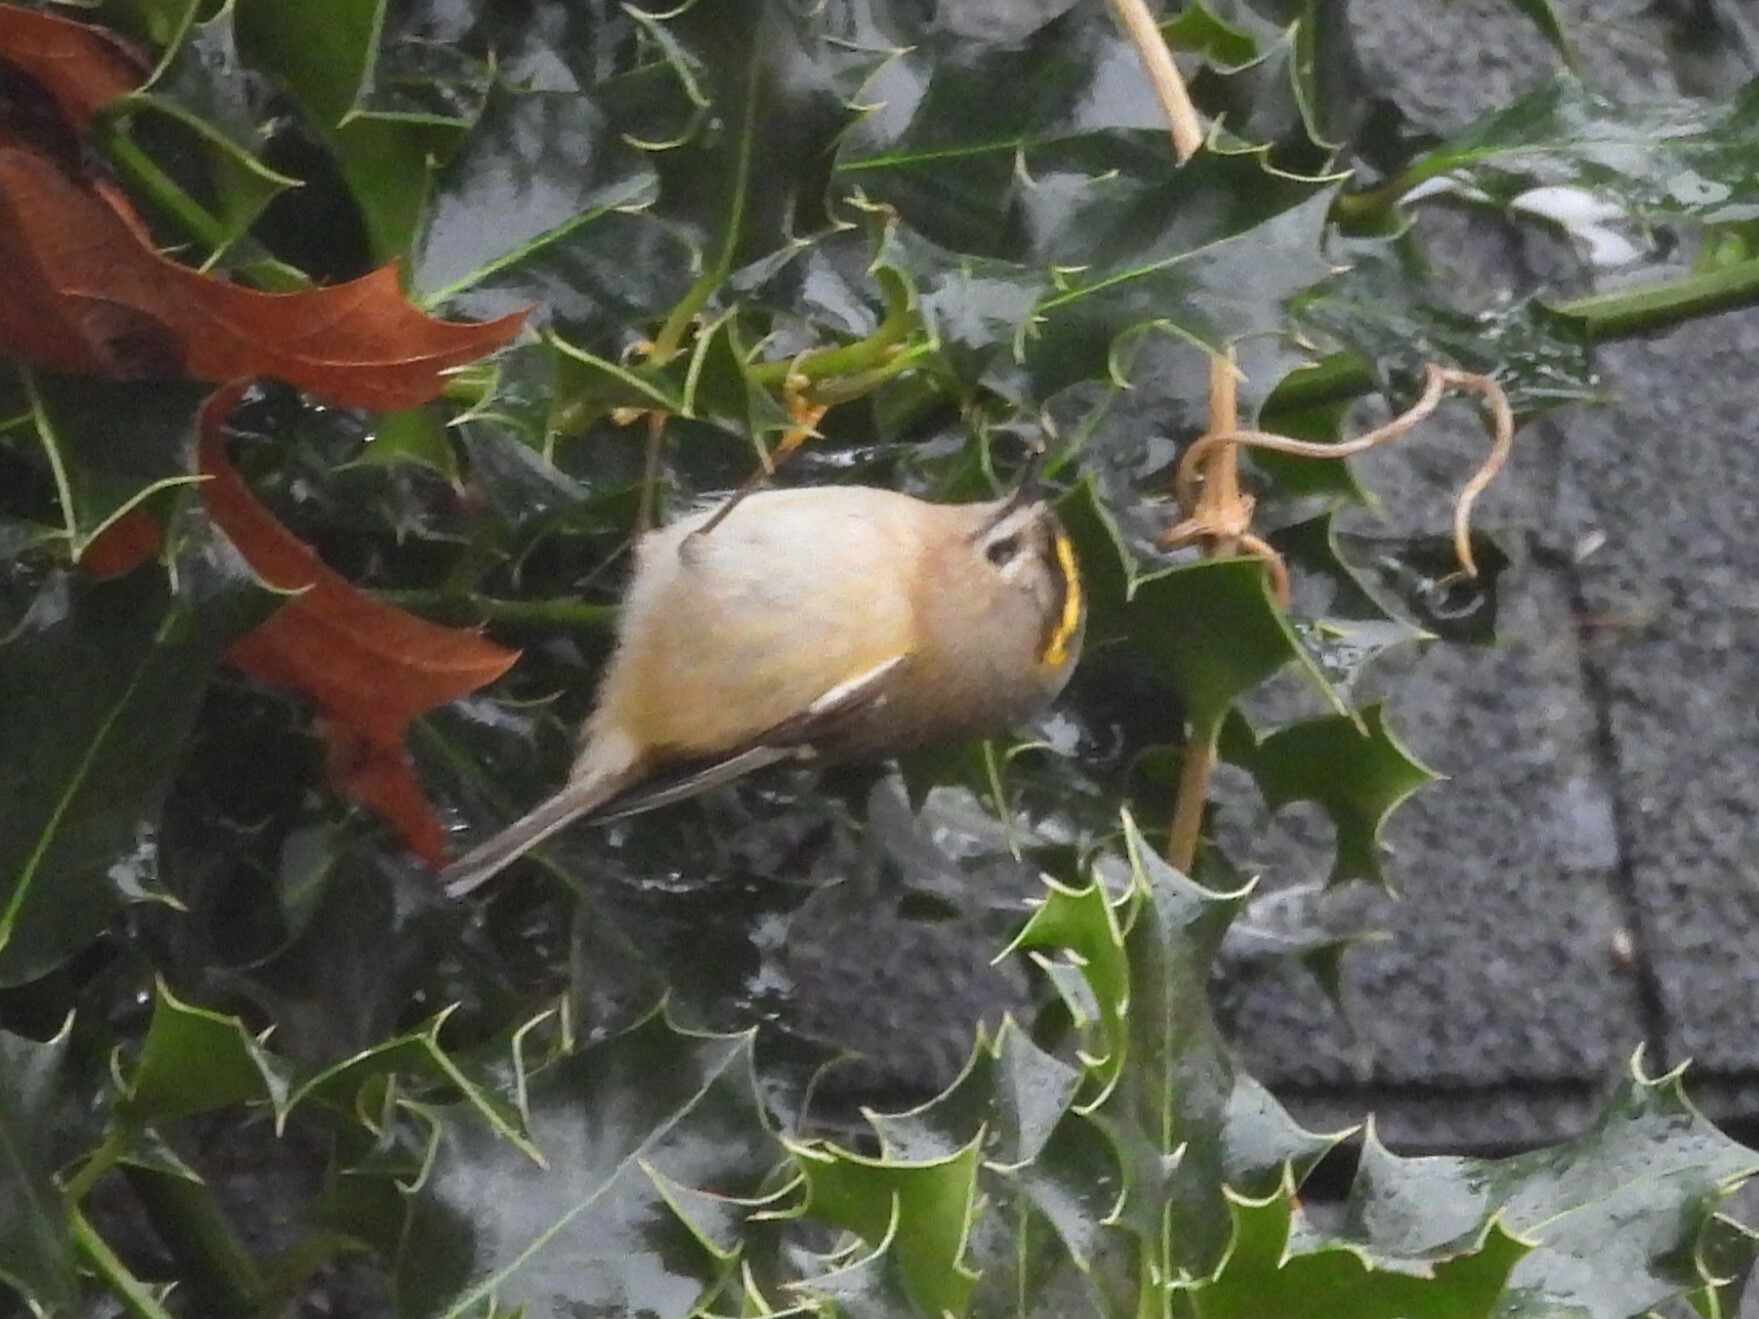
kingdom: Animalia
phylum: Chordata
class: Aves
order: Passeriformes
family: Regulidae
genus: Regulus
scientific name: Regulus regulus
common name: Goldcrest
